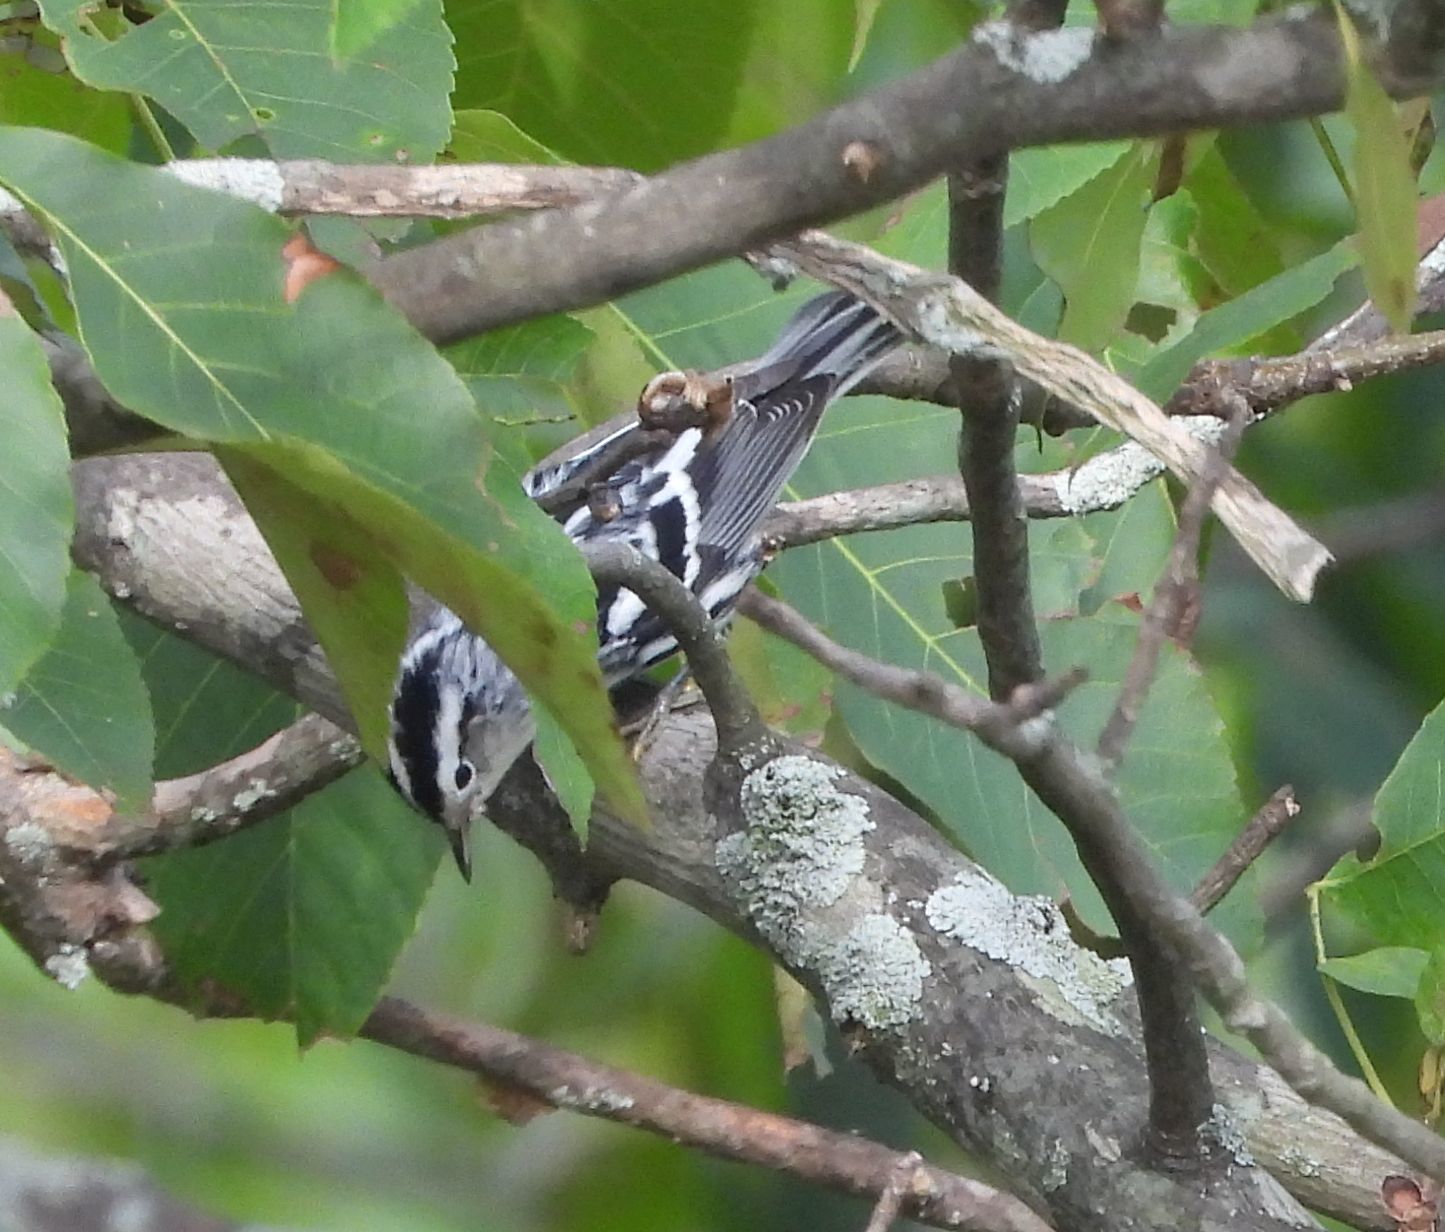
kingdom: Animalia
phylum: Chordata
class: Aves
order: Passeriformes
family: Parulidae
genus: Mniotilta
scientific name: Mniotilta varia
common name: Black-and-white warbler
